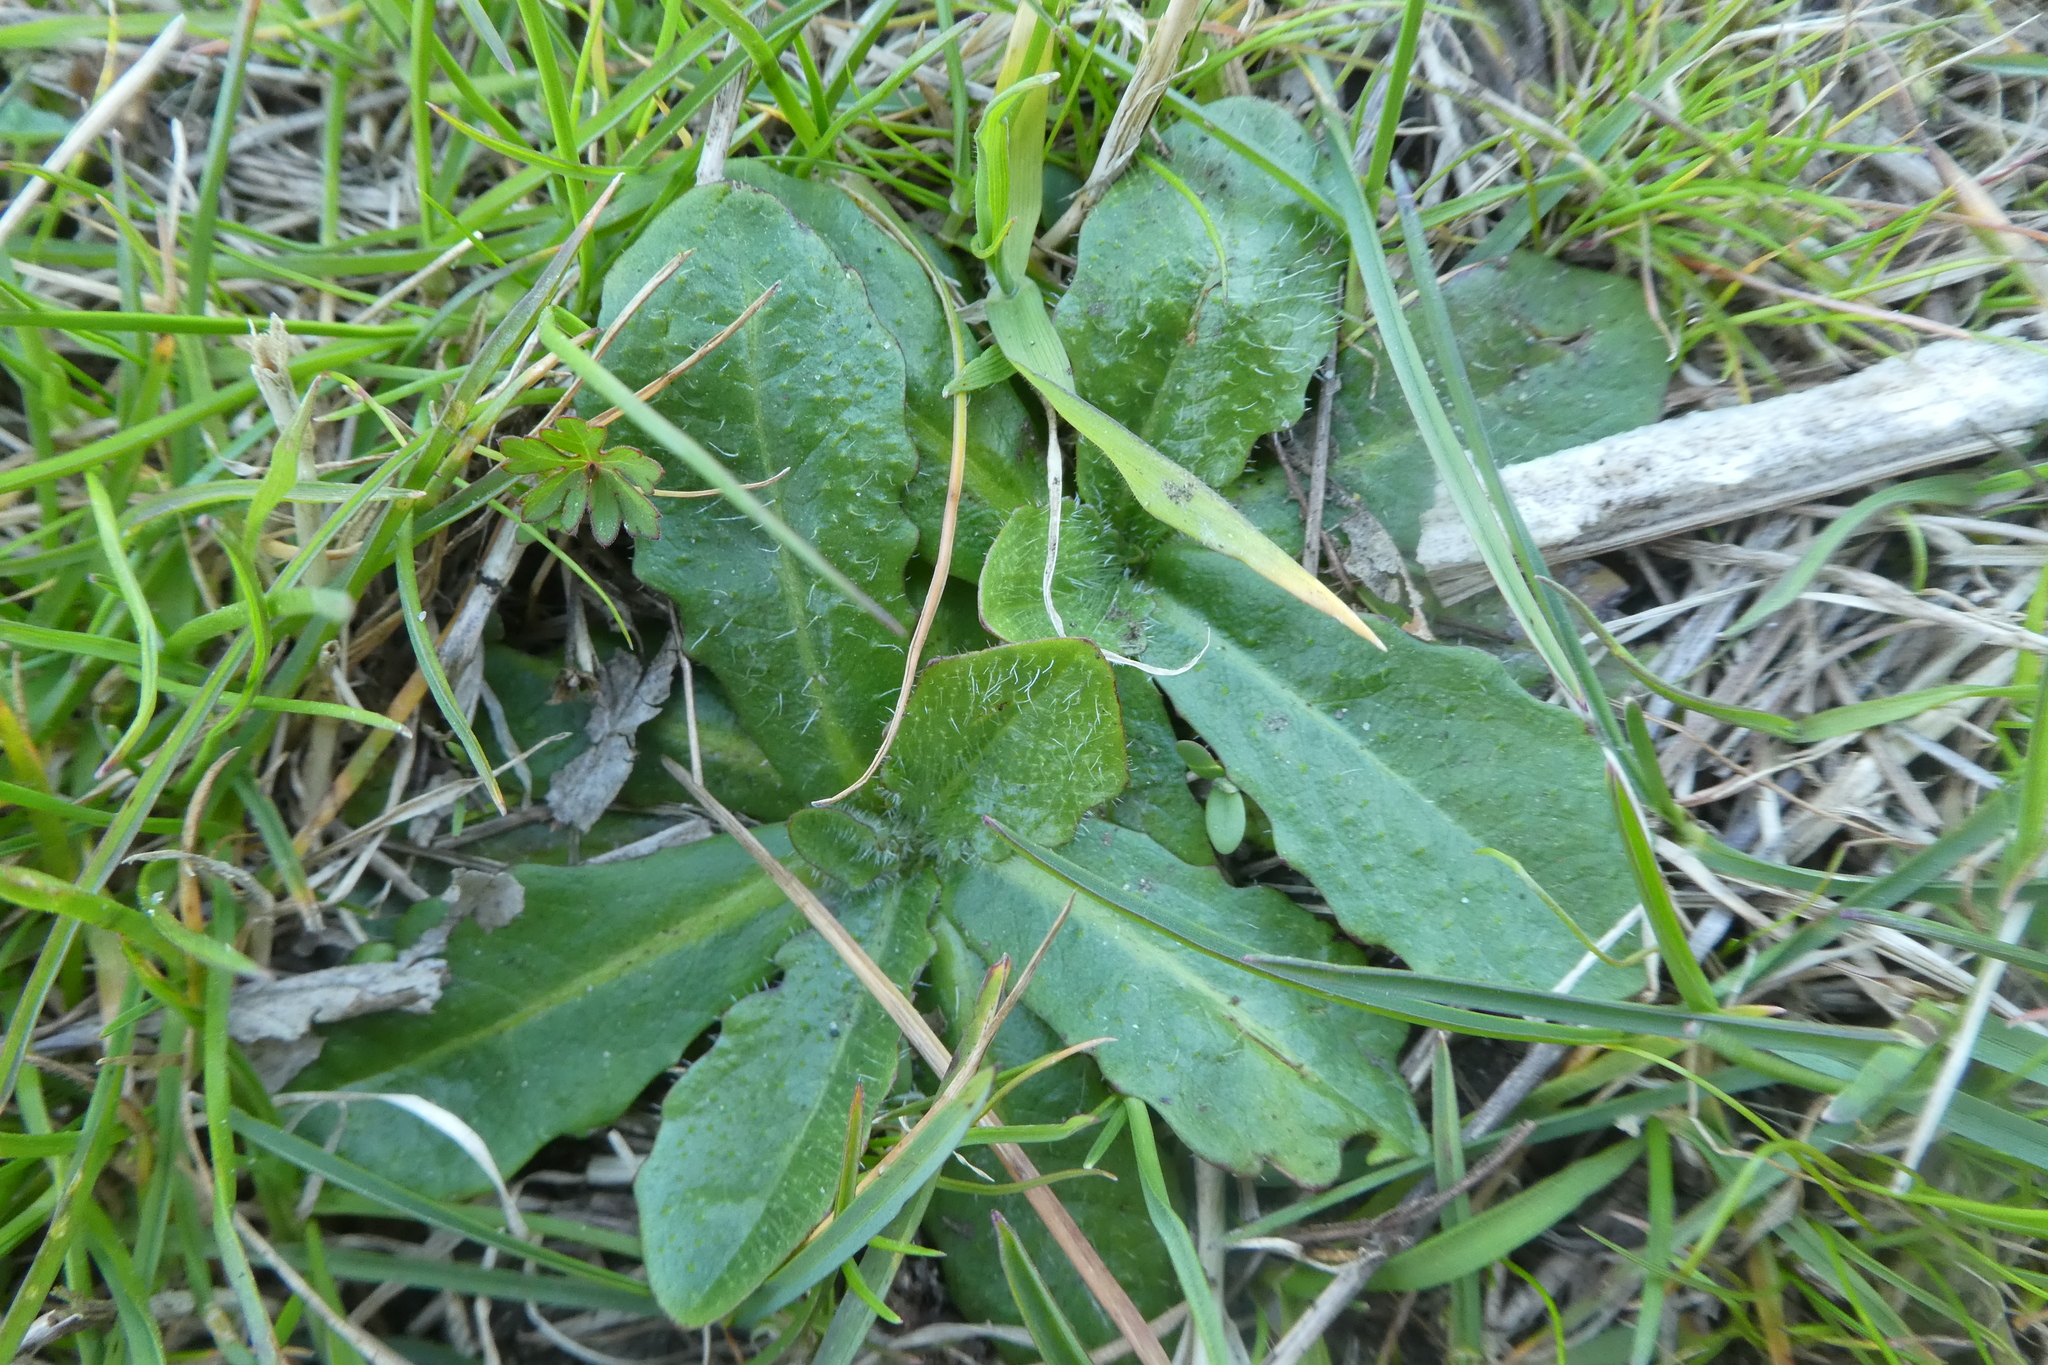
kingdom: Plantae
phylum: Tracheophyta
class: Magnoliopsida
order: Asterales
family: Asteraceae
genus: Hypochaeris
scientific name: Hypochaeris radicata
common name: Flatweed
